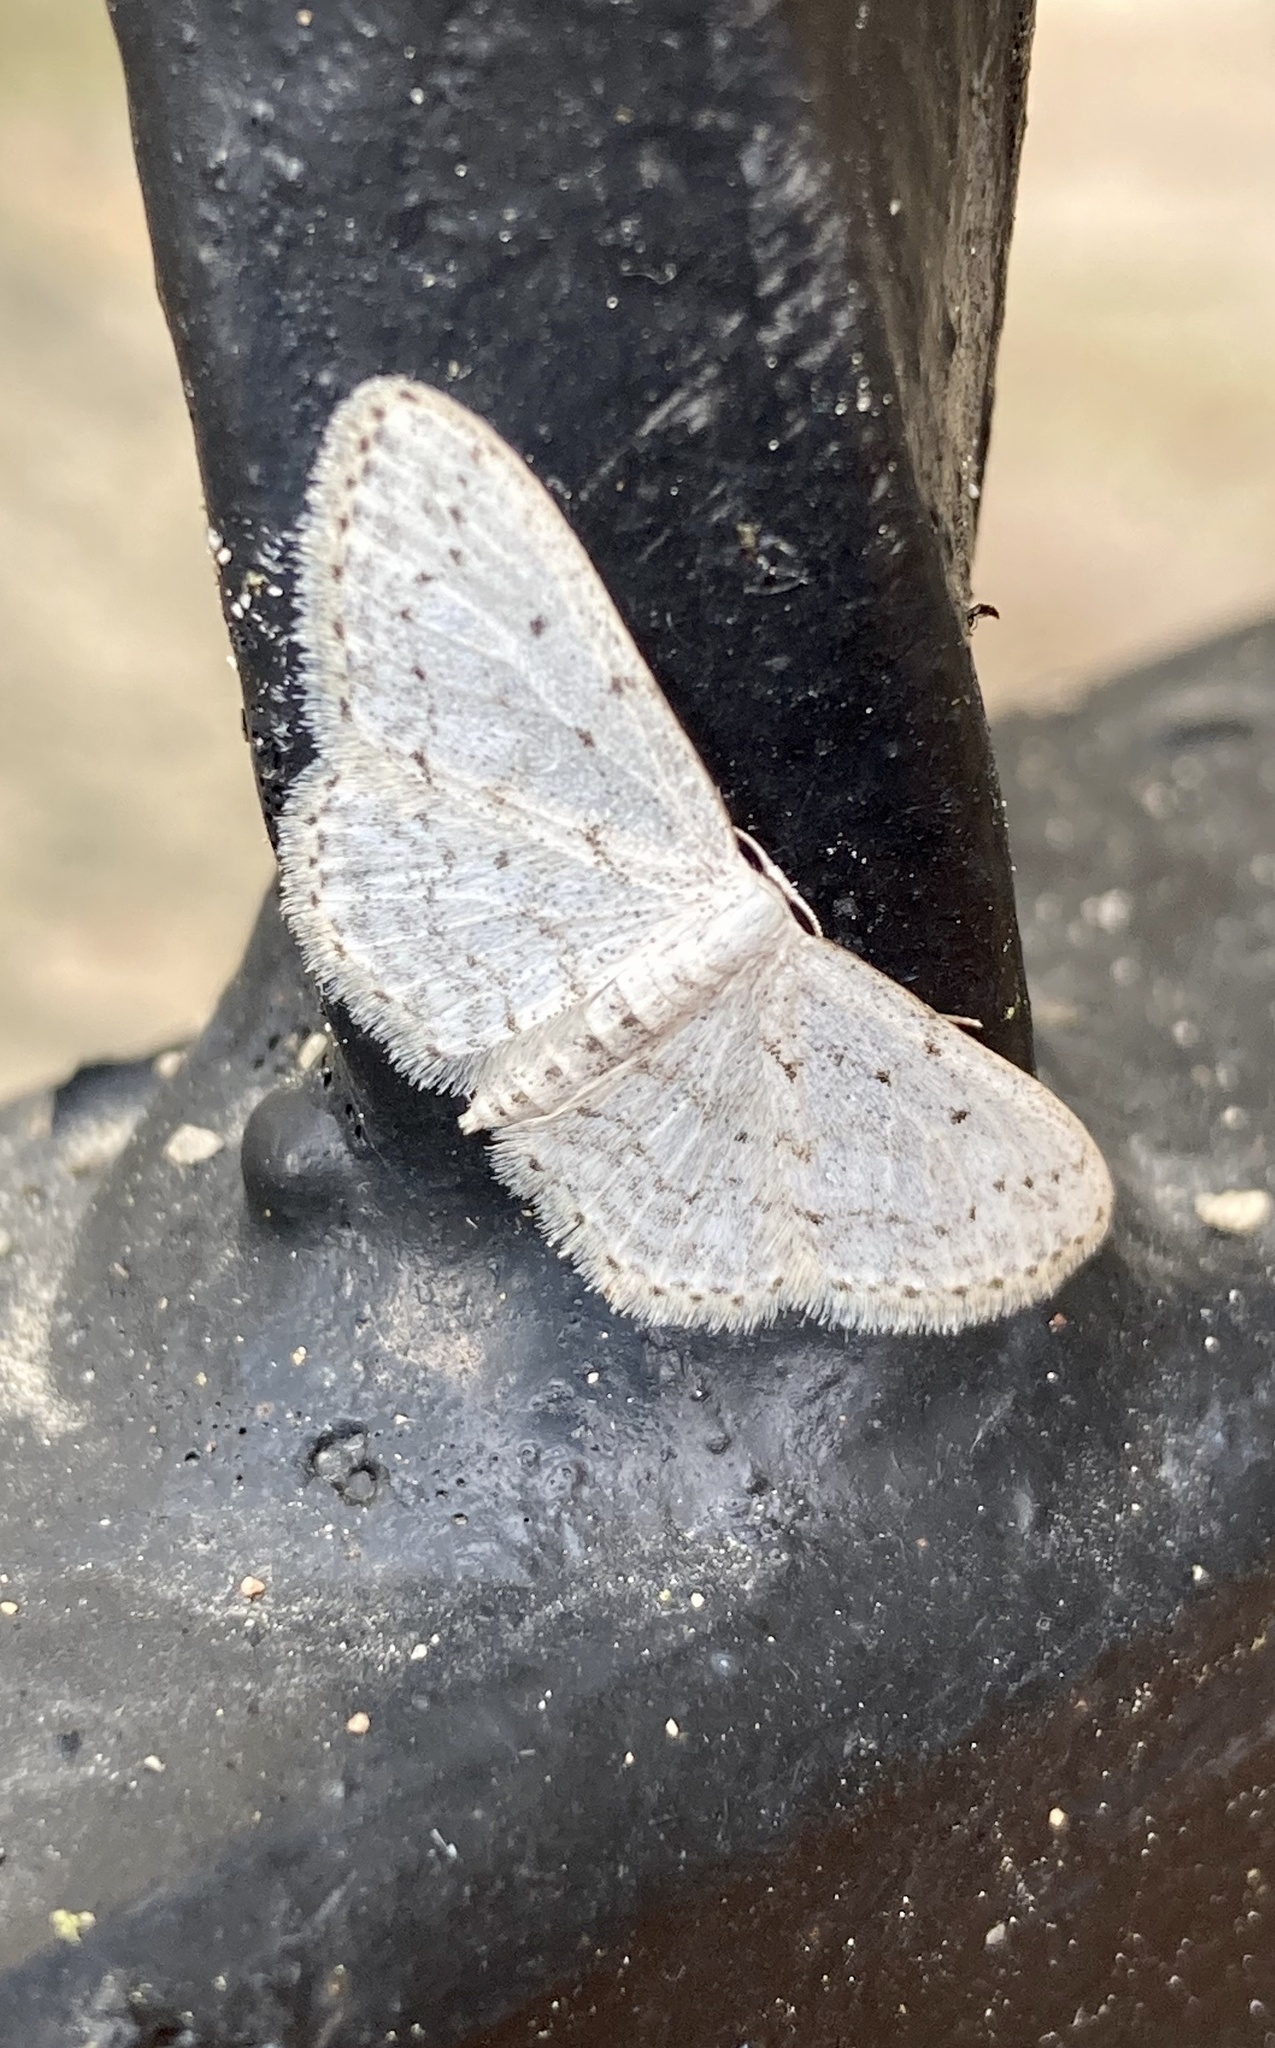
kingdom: Animalia
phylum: Arthropoda
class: Insecta
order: Lepidoptera
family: Geometridae
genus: Idaea
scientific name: Idaea seriata
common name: Small dusty wave
